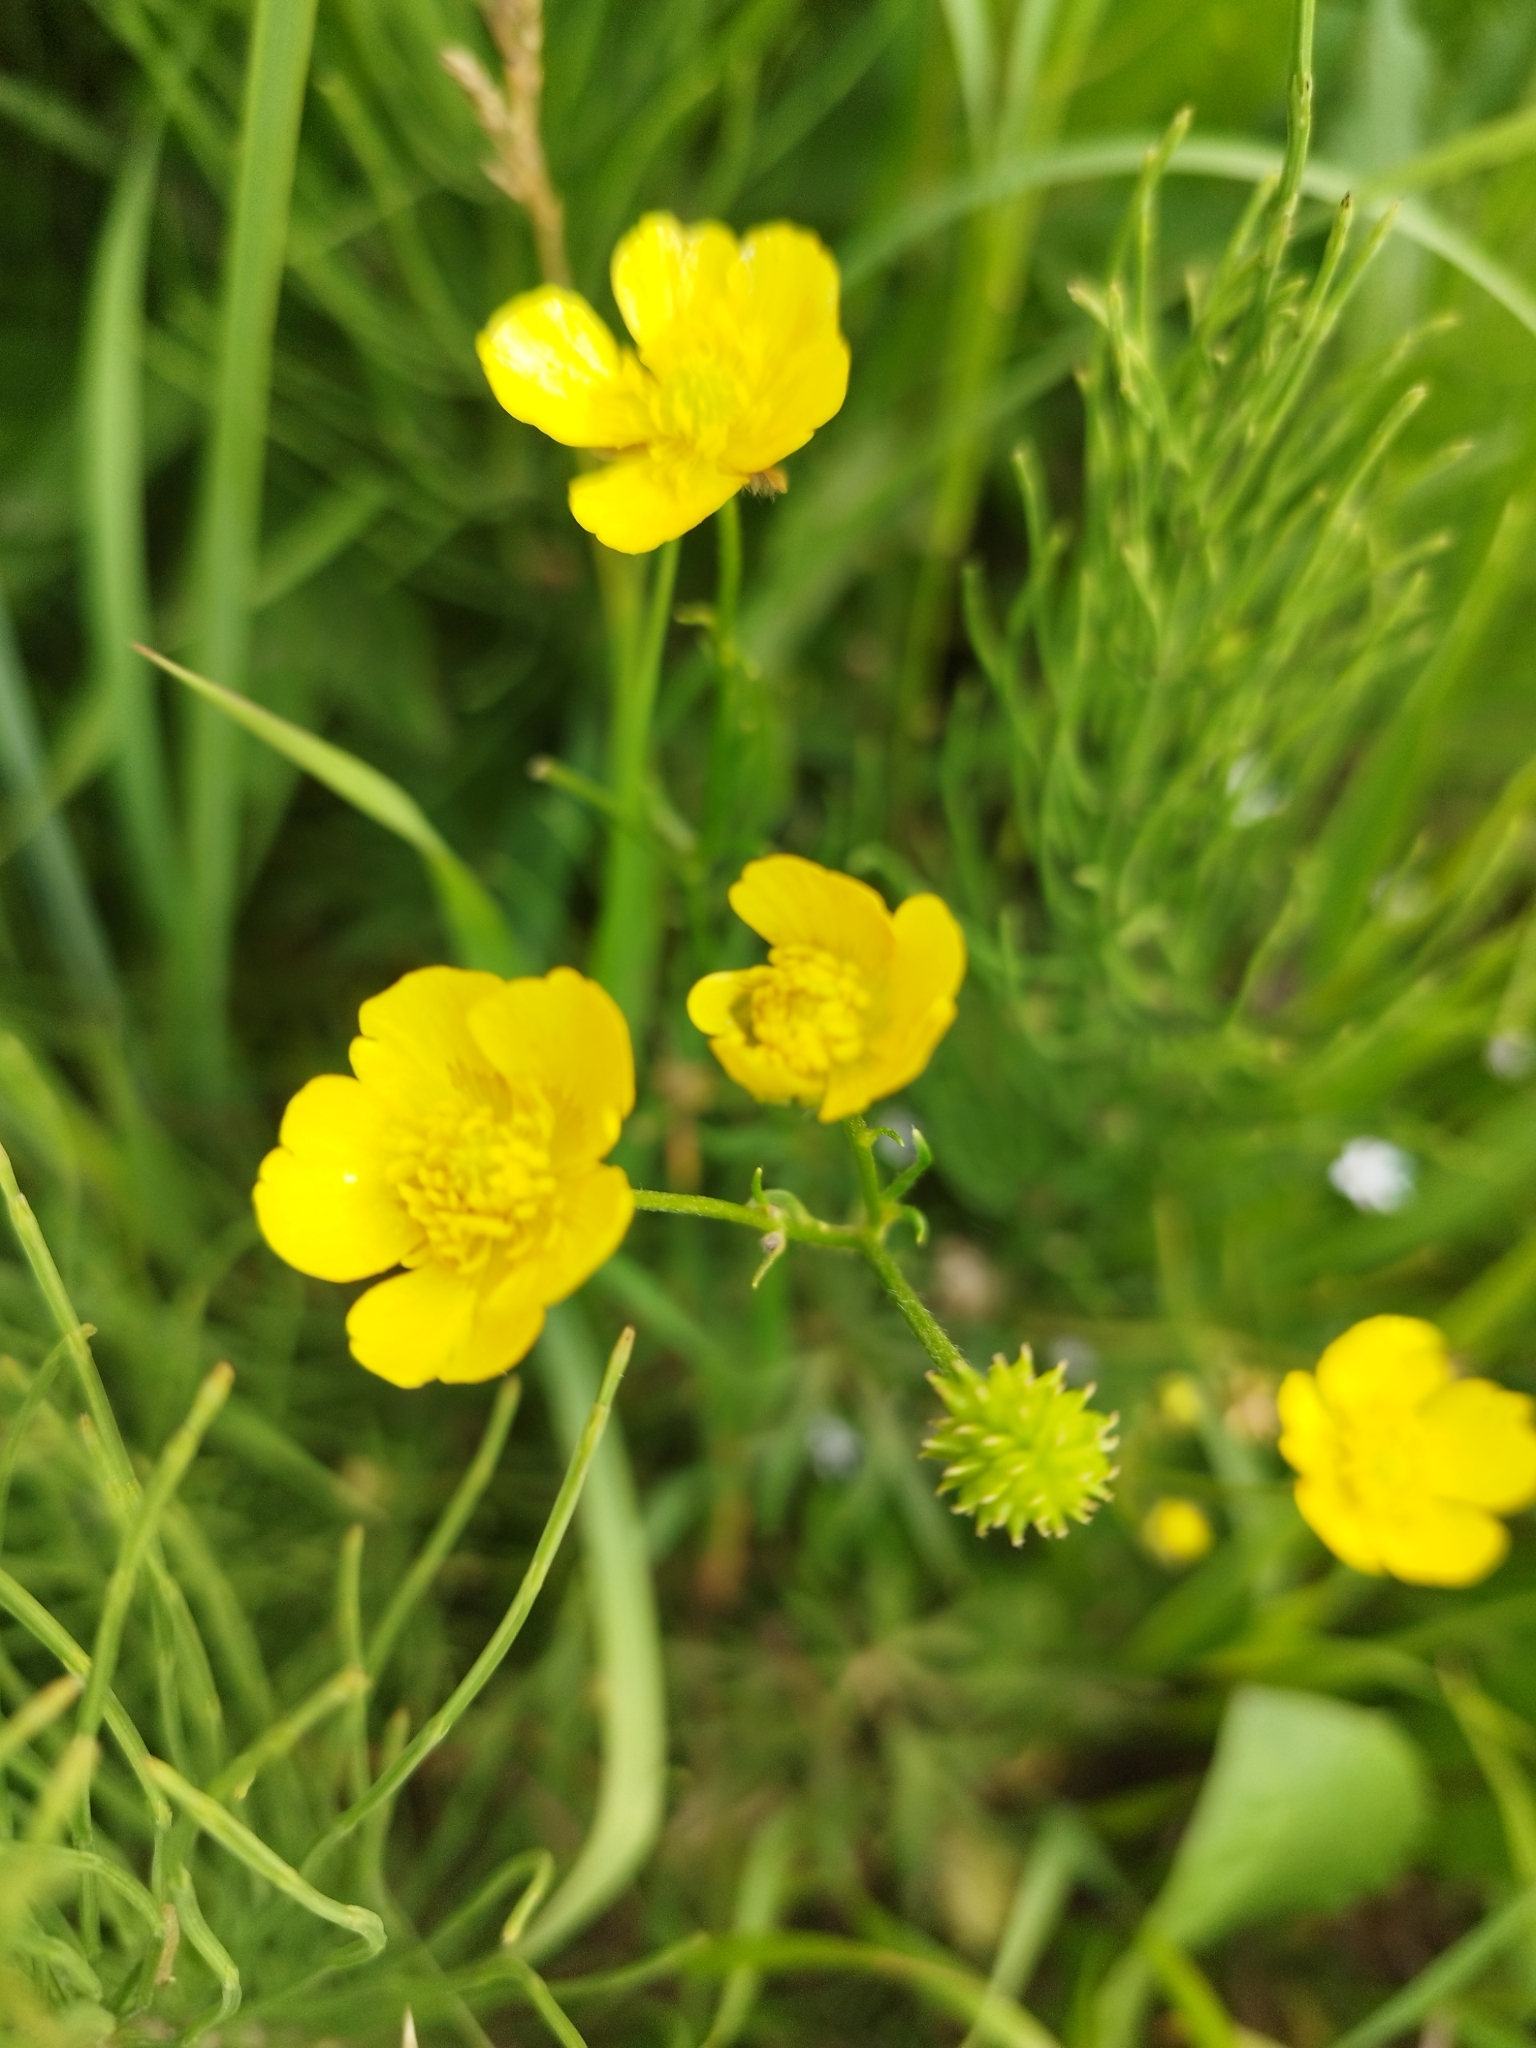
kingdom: Plantae
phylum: Tracheophyta
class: Magnoliopsida
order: Ranunculales
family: Ranunculaceae
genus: Ranunculus
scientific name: Ranunculus polyanthemos
